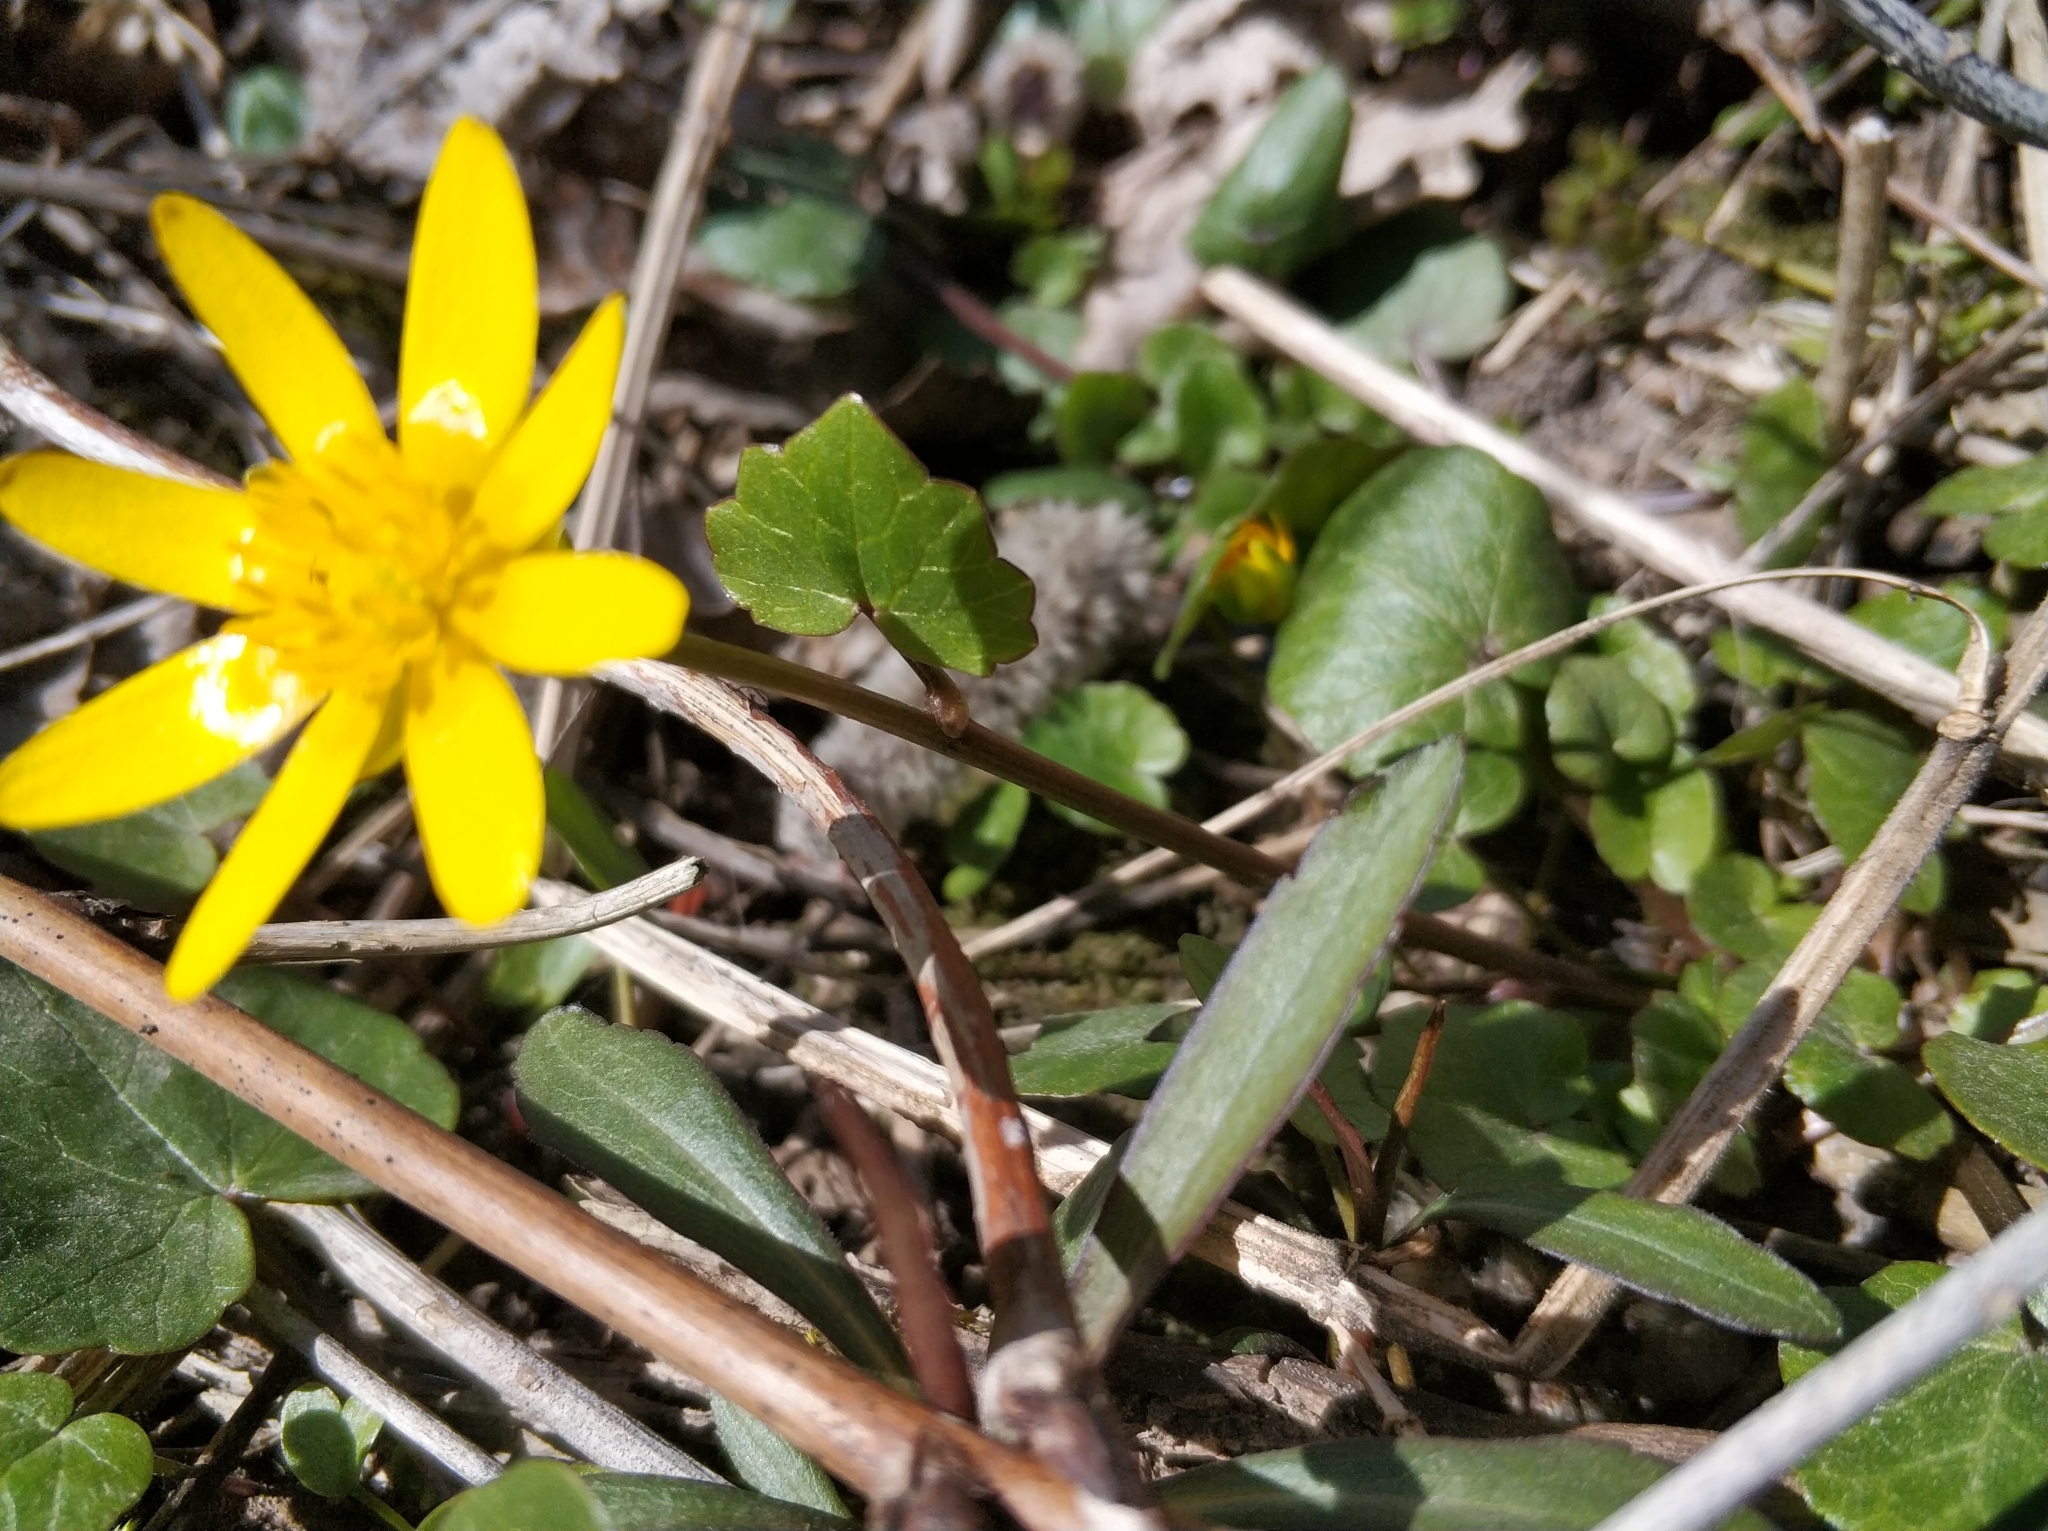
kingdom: Plantae
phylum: Tracheophyta
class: Magnoliopsida
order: Ranunculales
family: Ranunculaceae
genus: Ficaria
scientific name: Ficaria verna
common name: Lesser celandine
